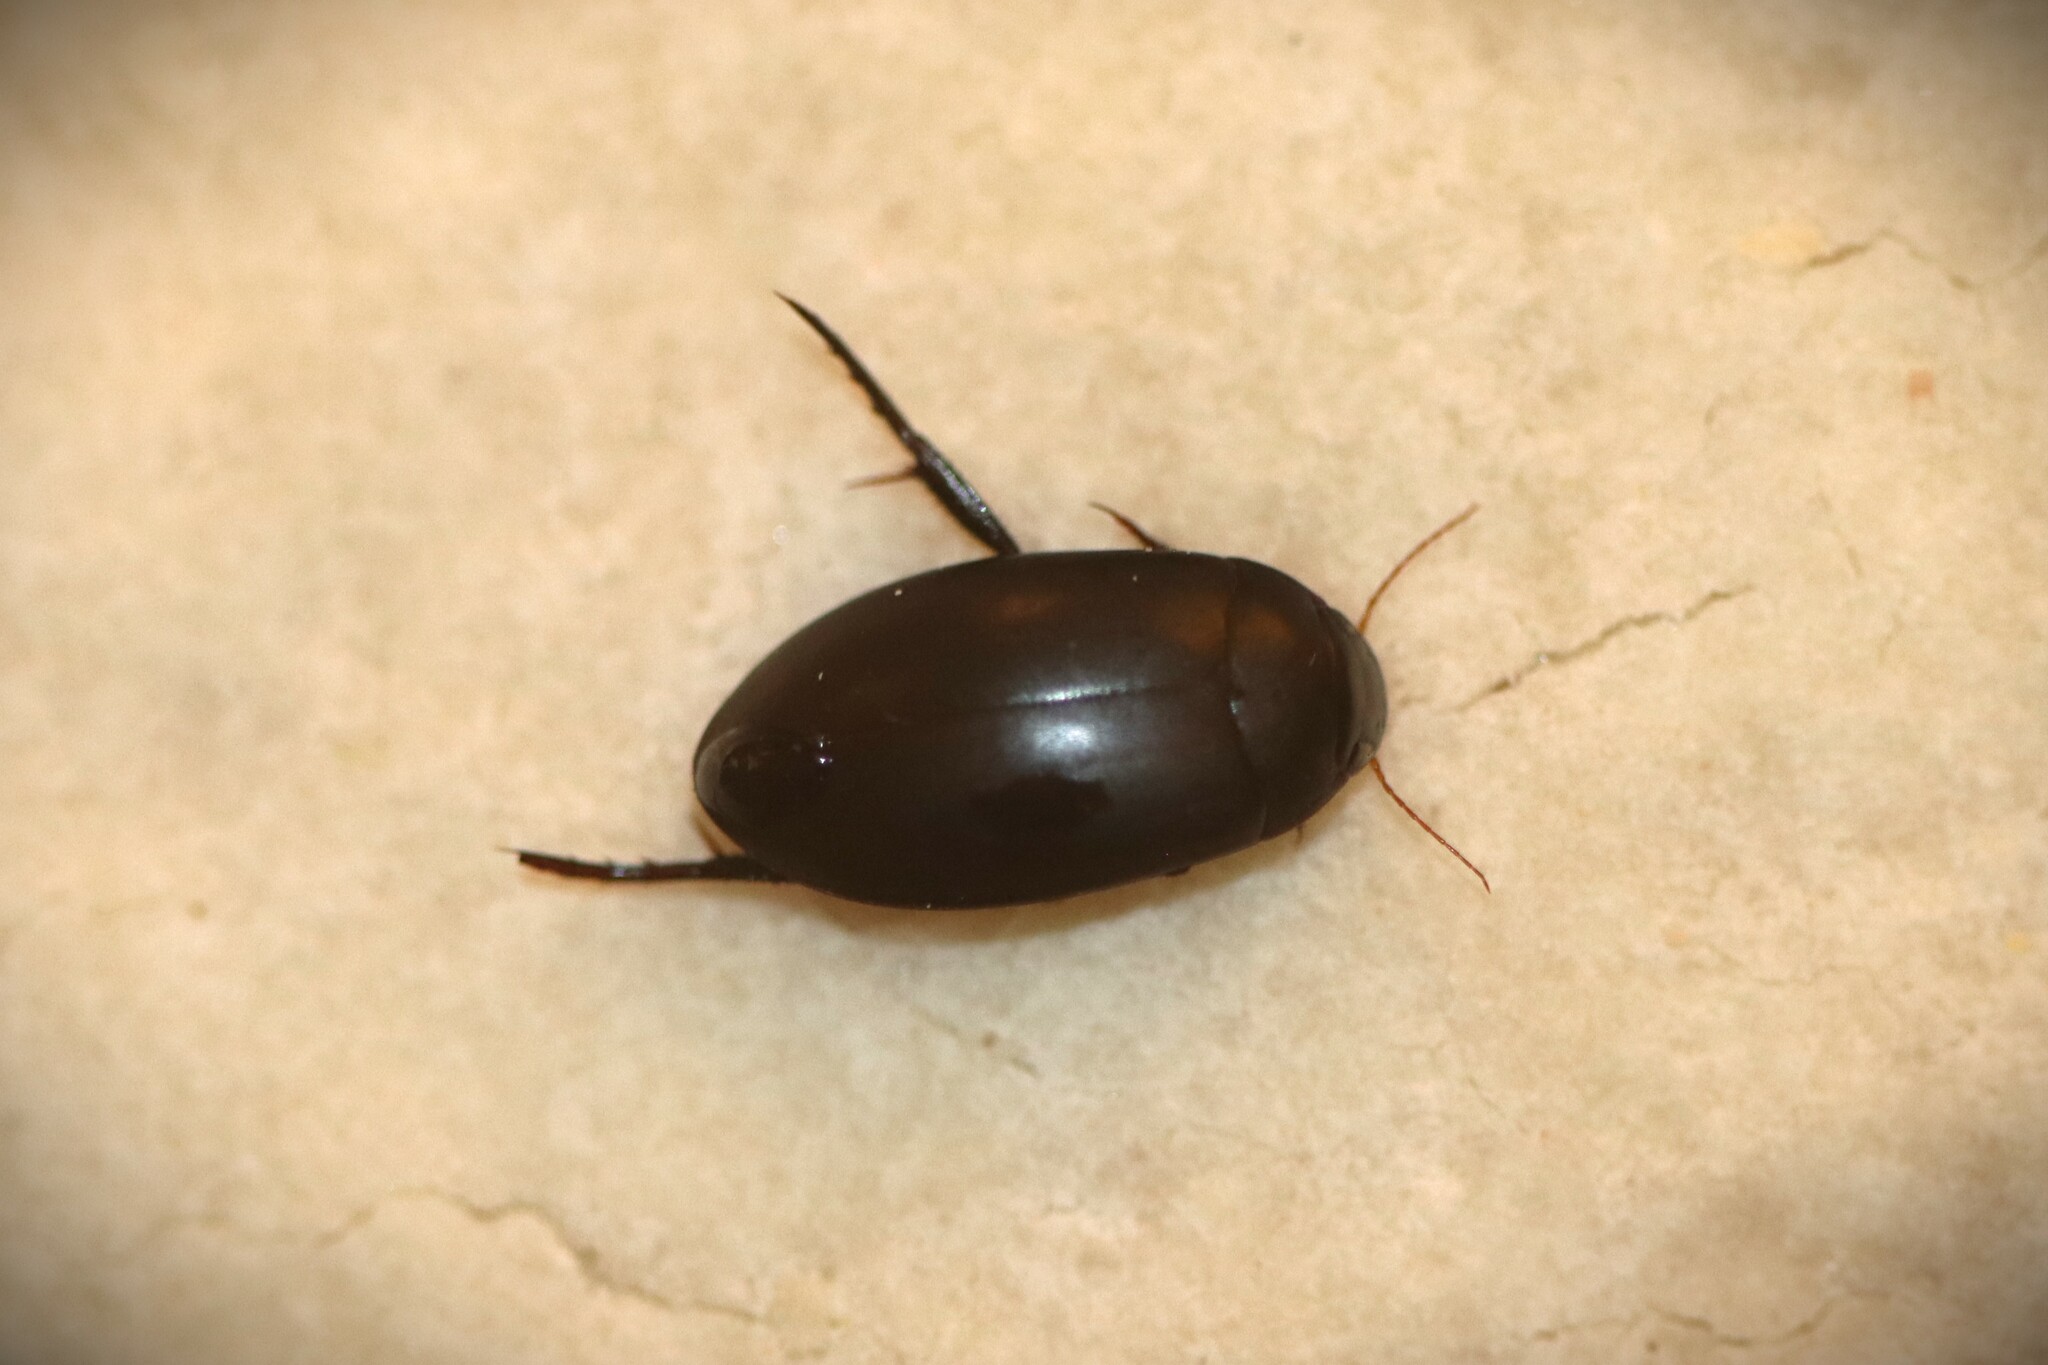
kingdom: Animalia
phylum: Arthropoda
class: Insecta
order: Coleoptera
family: Dytiscidae
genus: Nartus
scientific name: Nartus grapii
